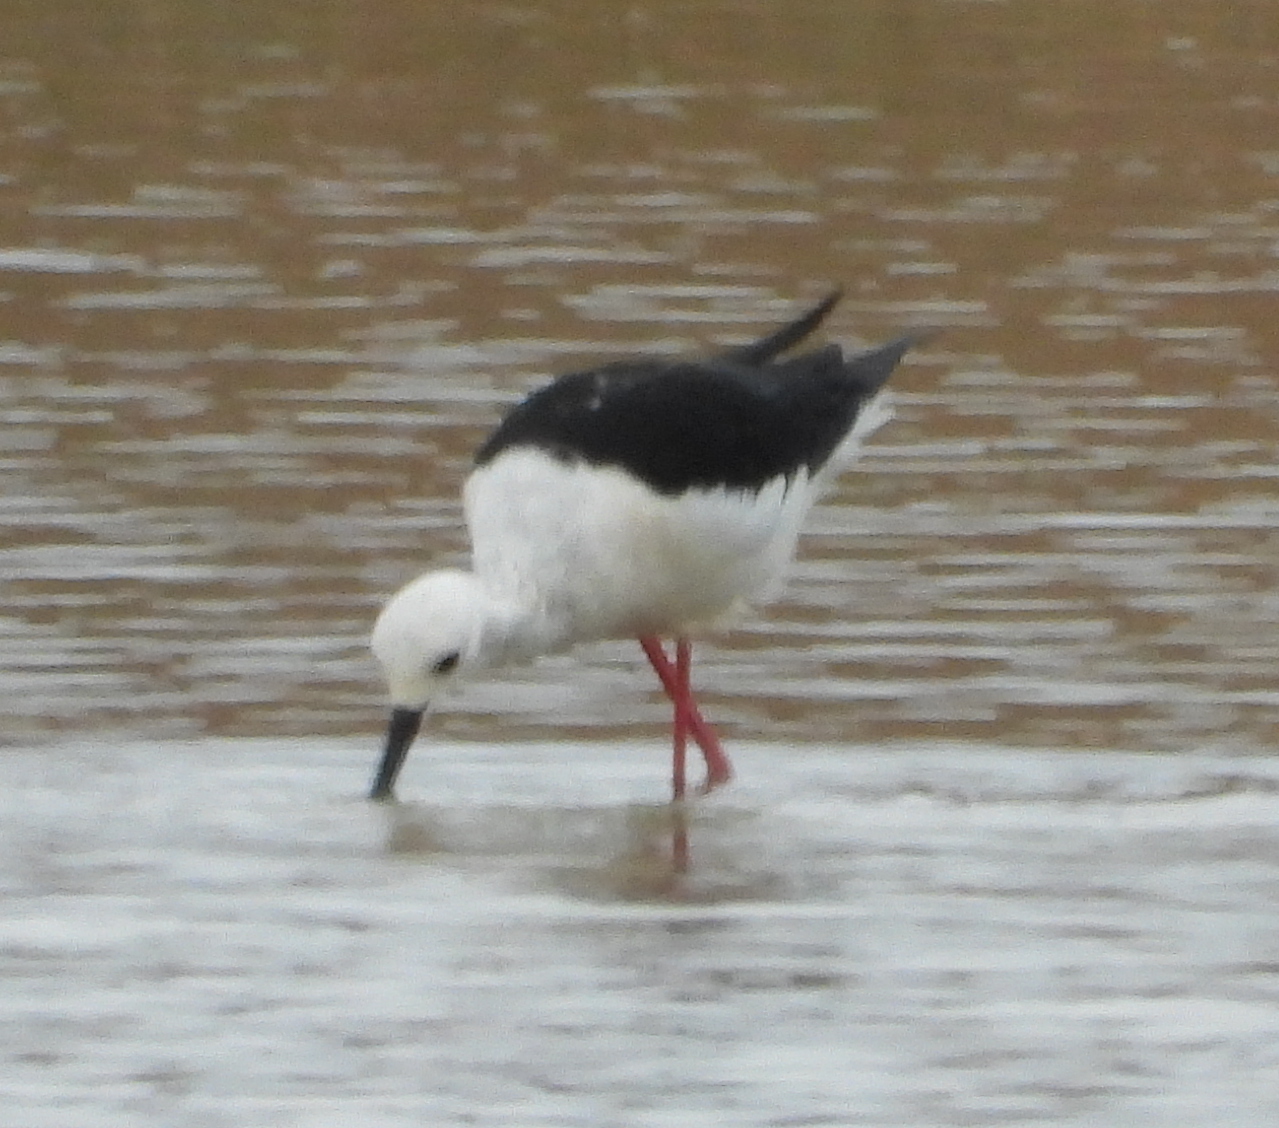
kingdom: Animalia
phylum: Chordata
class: Aves
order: Charadriiformes
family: Recurvirostridae
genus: Himantopus
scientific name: Himantopus himantopus
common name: Black-winged stilt
